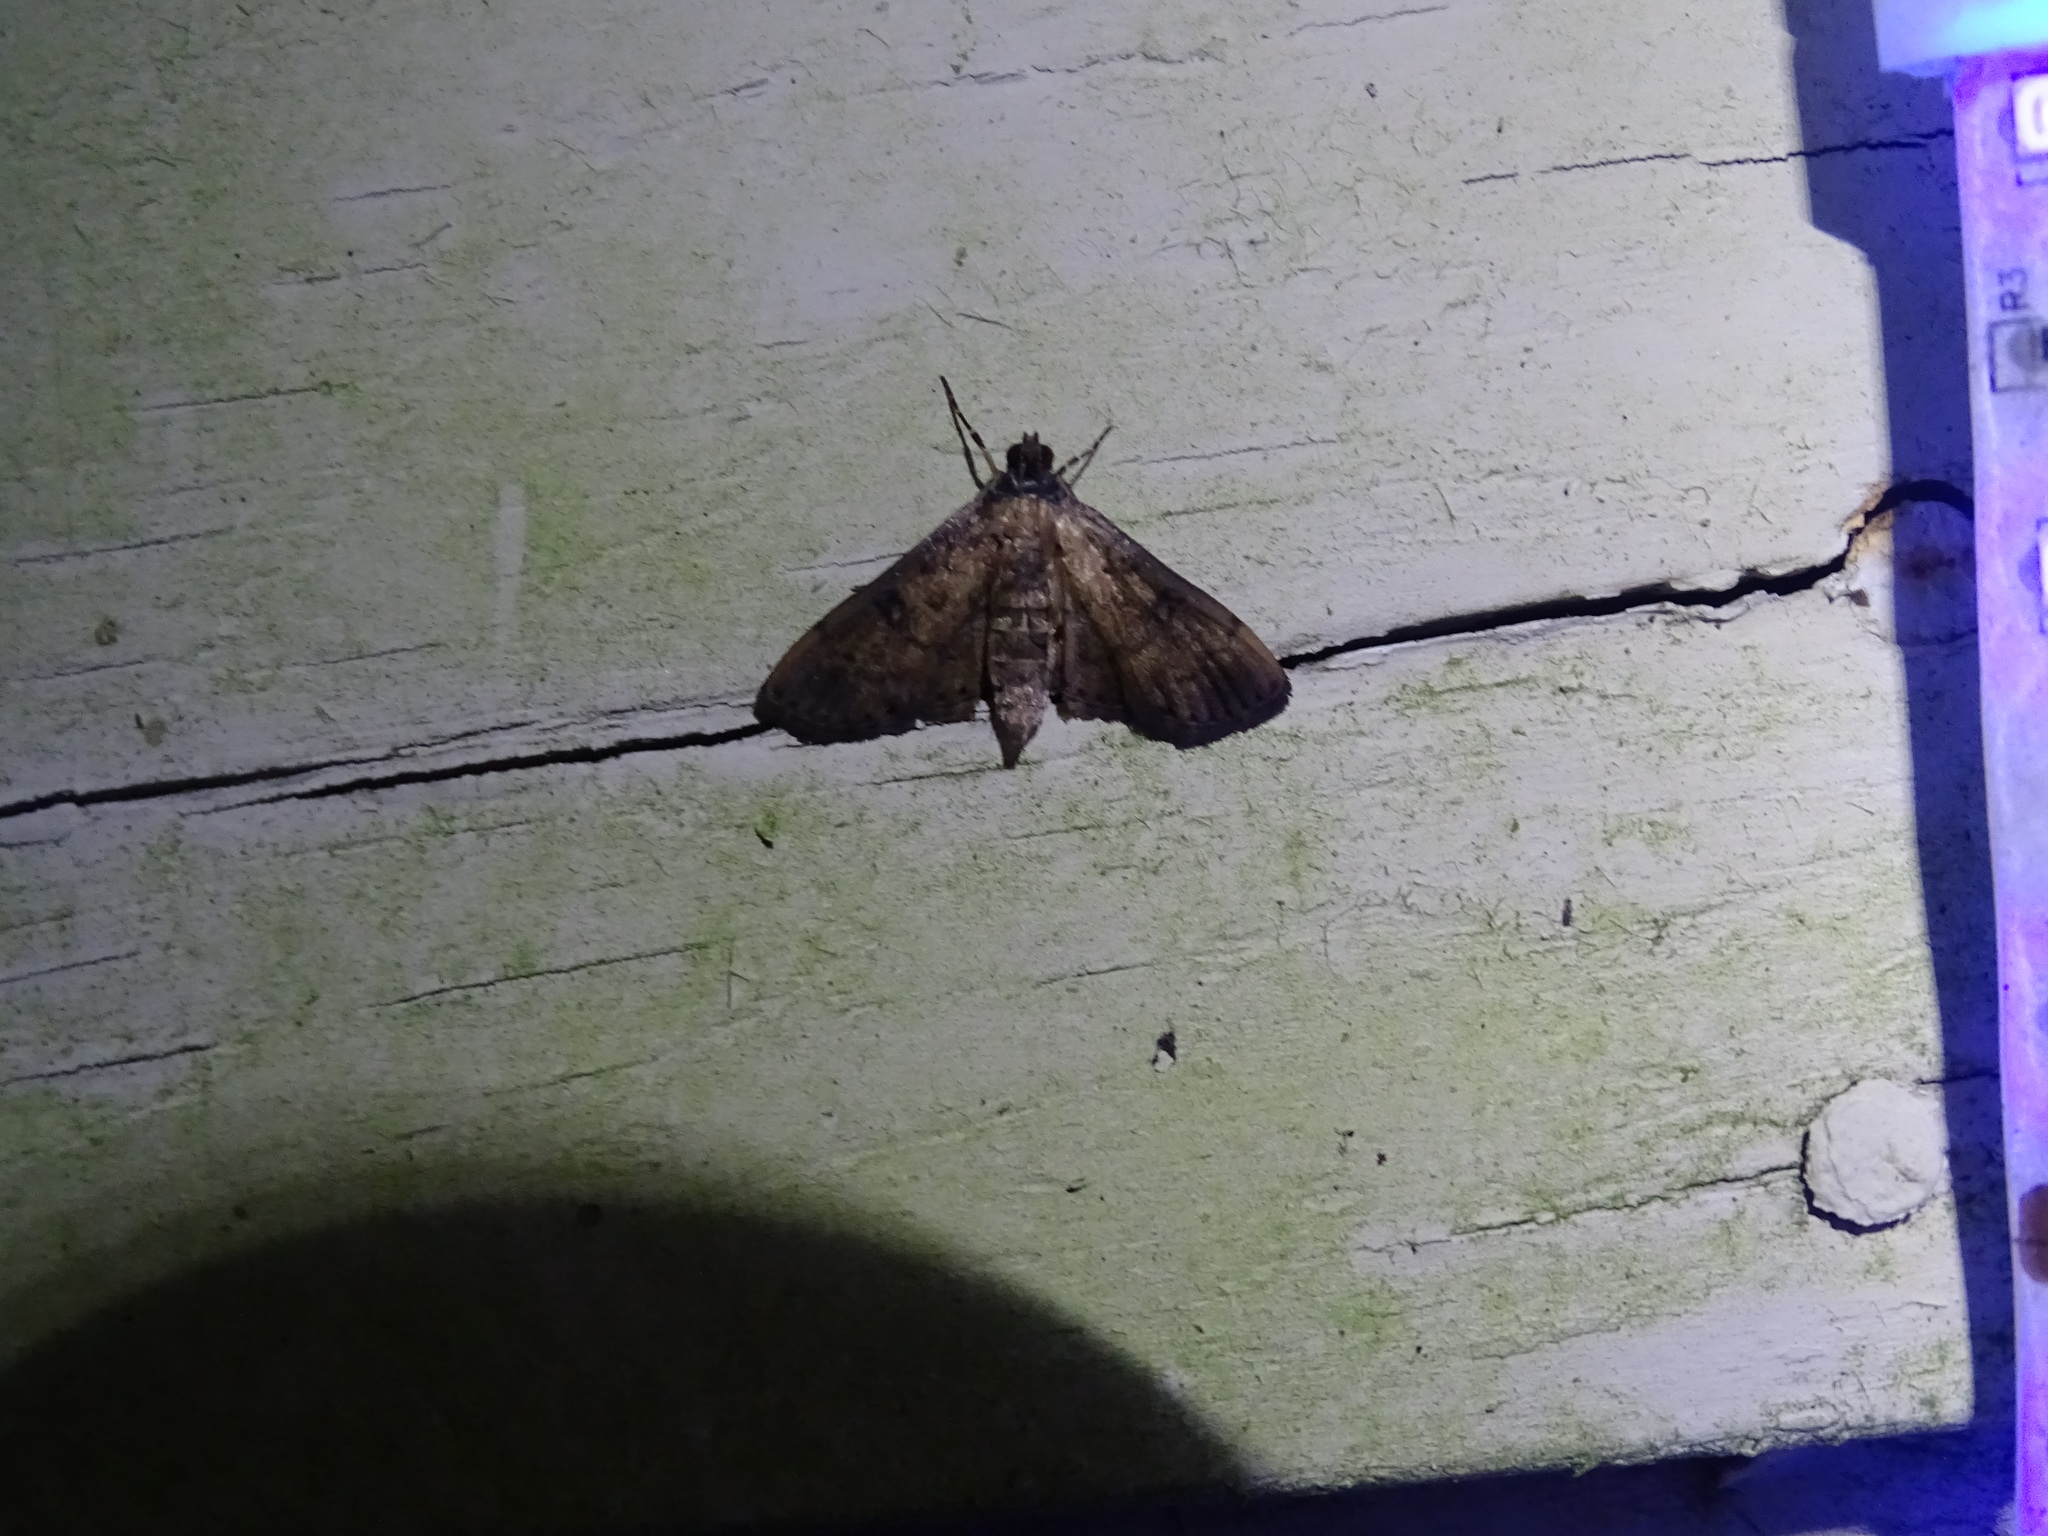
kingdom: Animalia
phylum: Arthropoda
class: Insecta
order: Lepidoptera
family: Crambidae
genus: Herpetogramma
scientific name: Herpetogramma phaeopteralis
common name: Dusky herpetogramma moth
